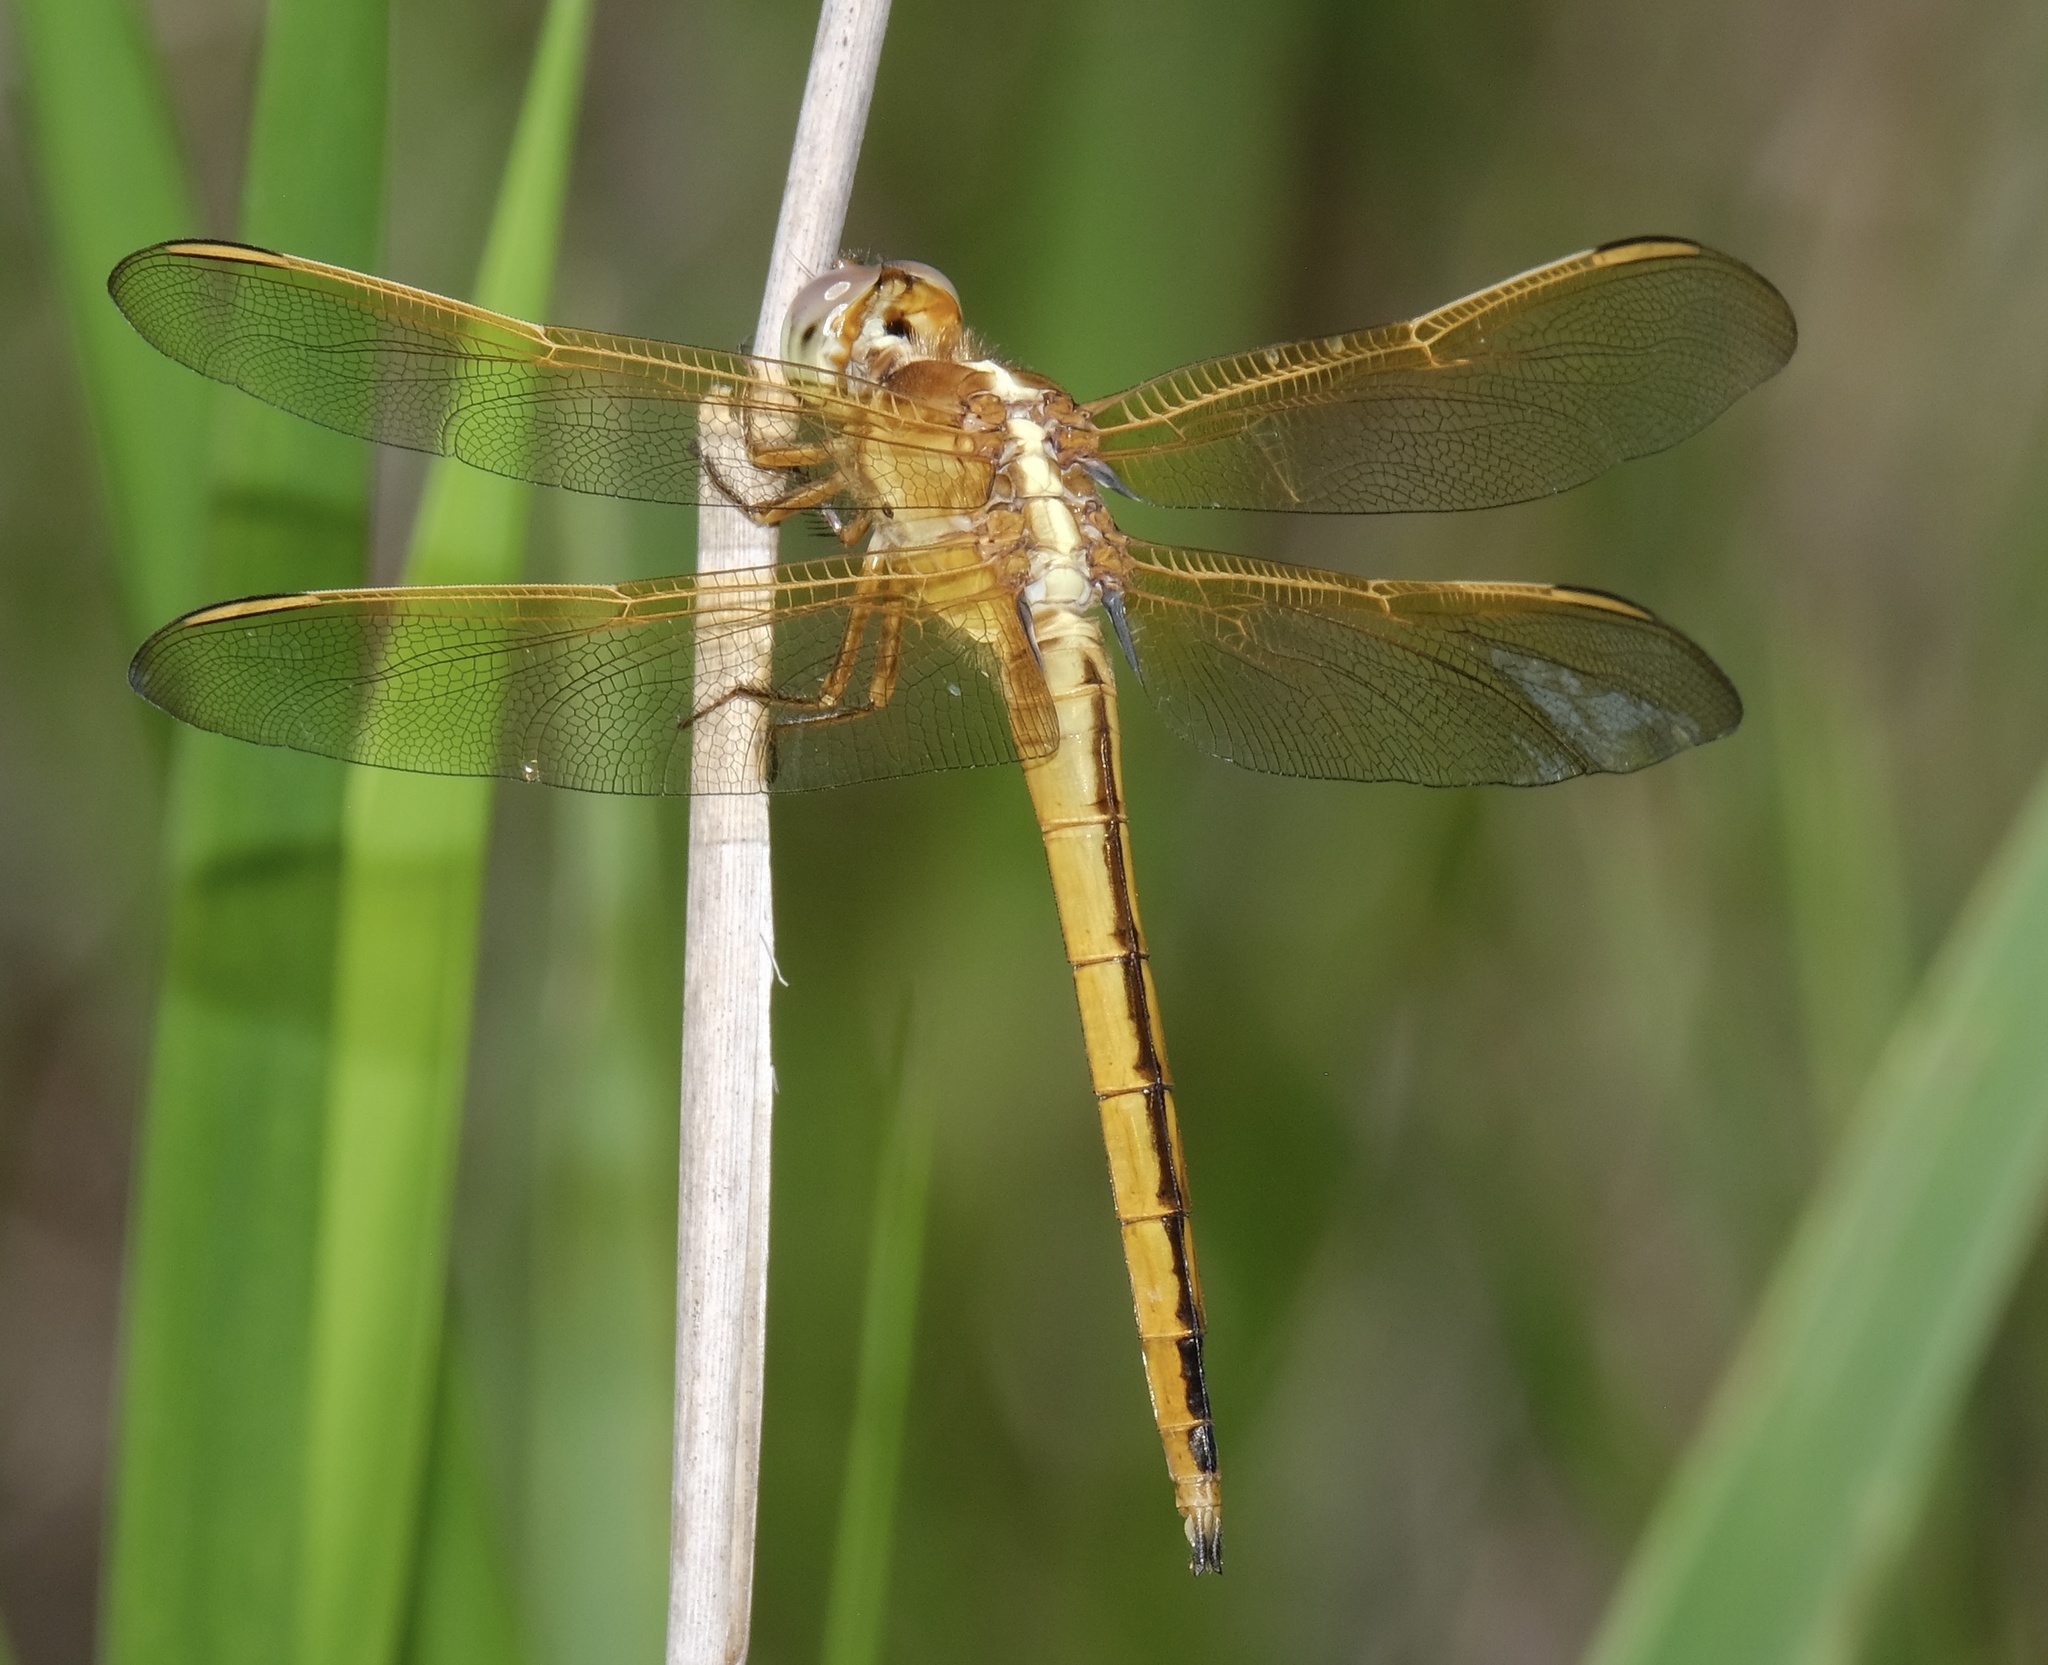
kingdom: Animalia
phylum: Arthropoda
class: Insecta
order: Odonata
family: Libellulidae
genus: Libellula
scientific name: Libellula needhami
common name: Needham's skimmer
